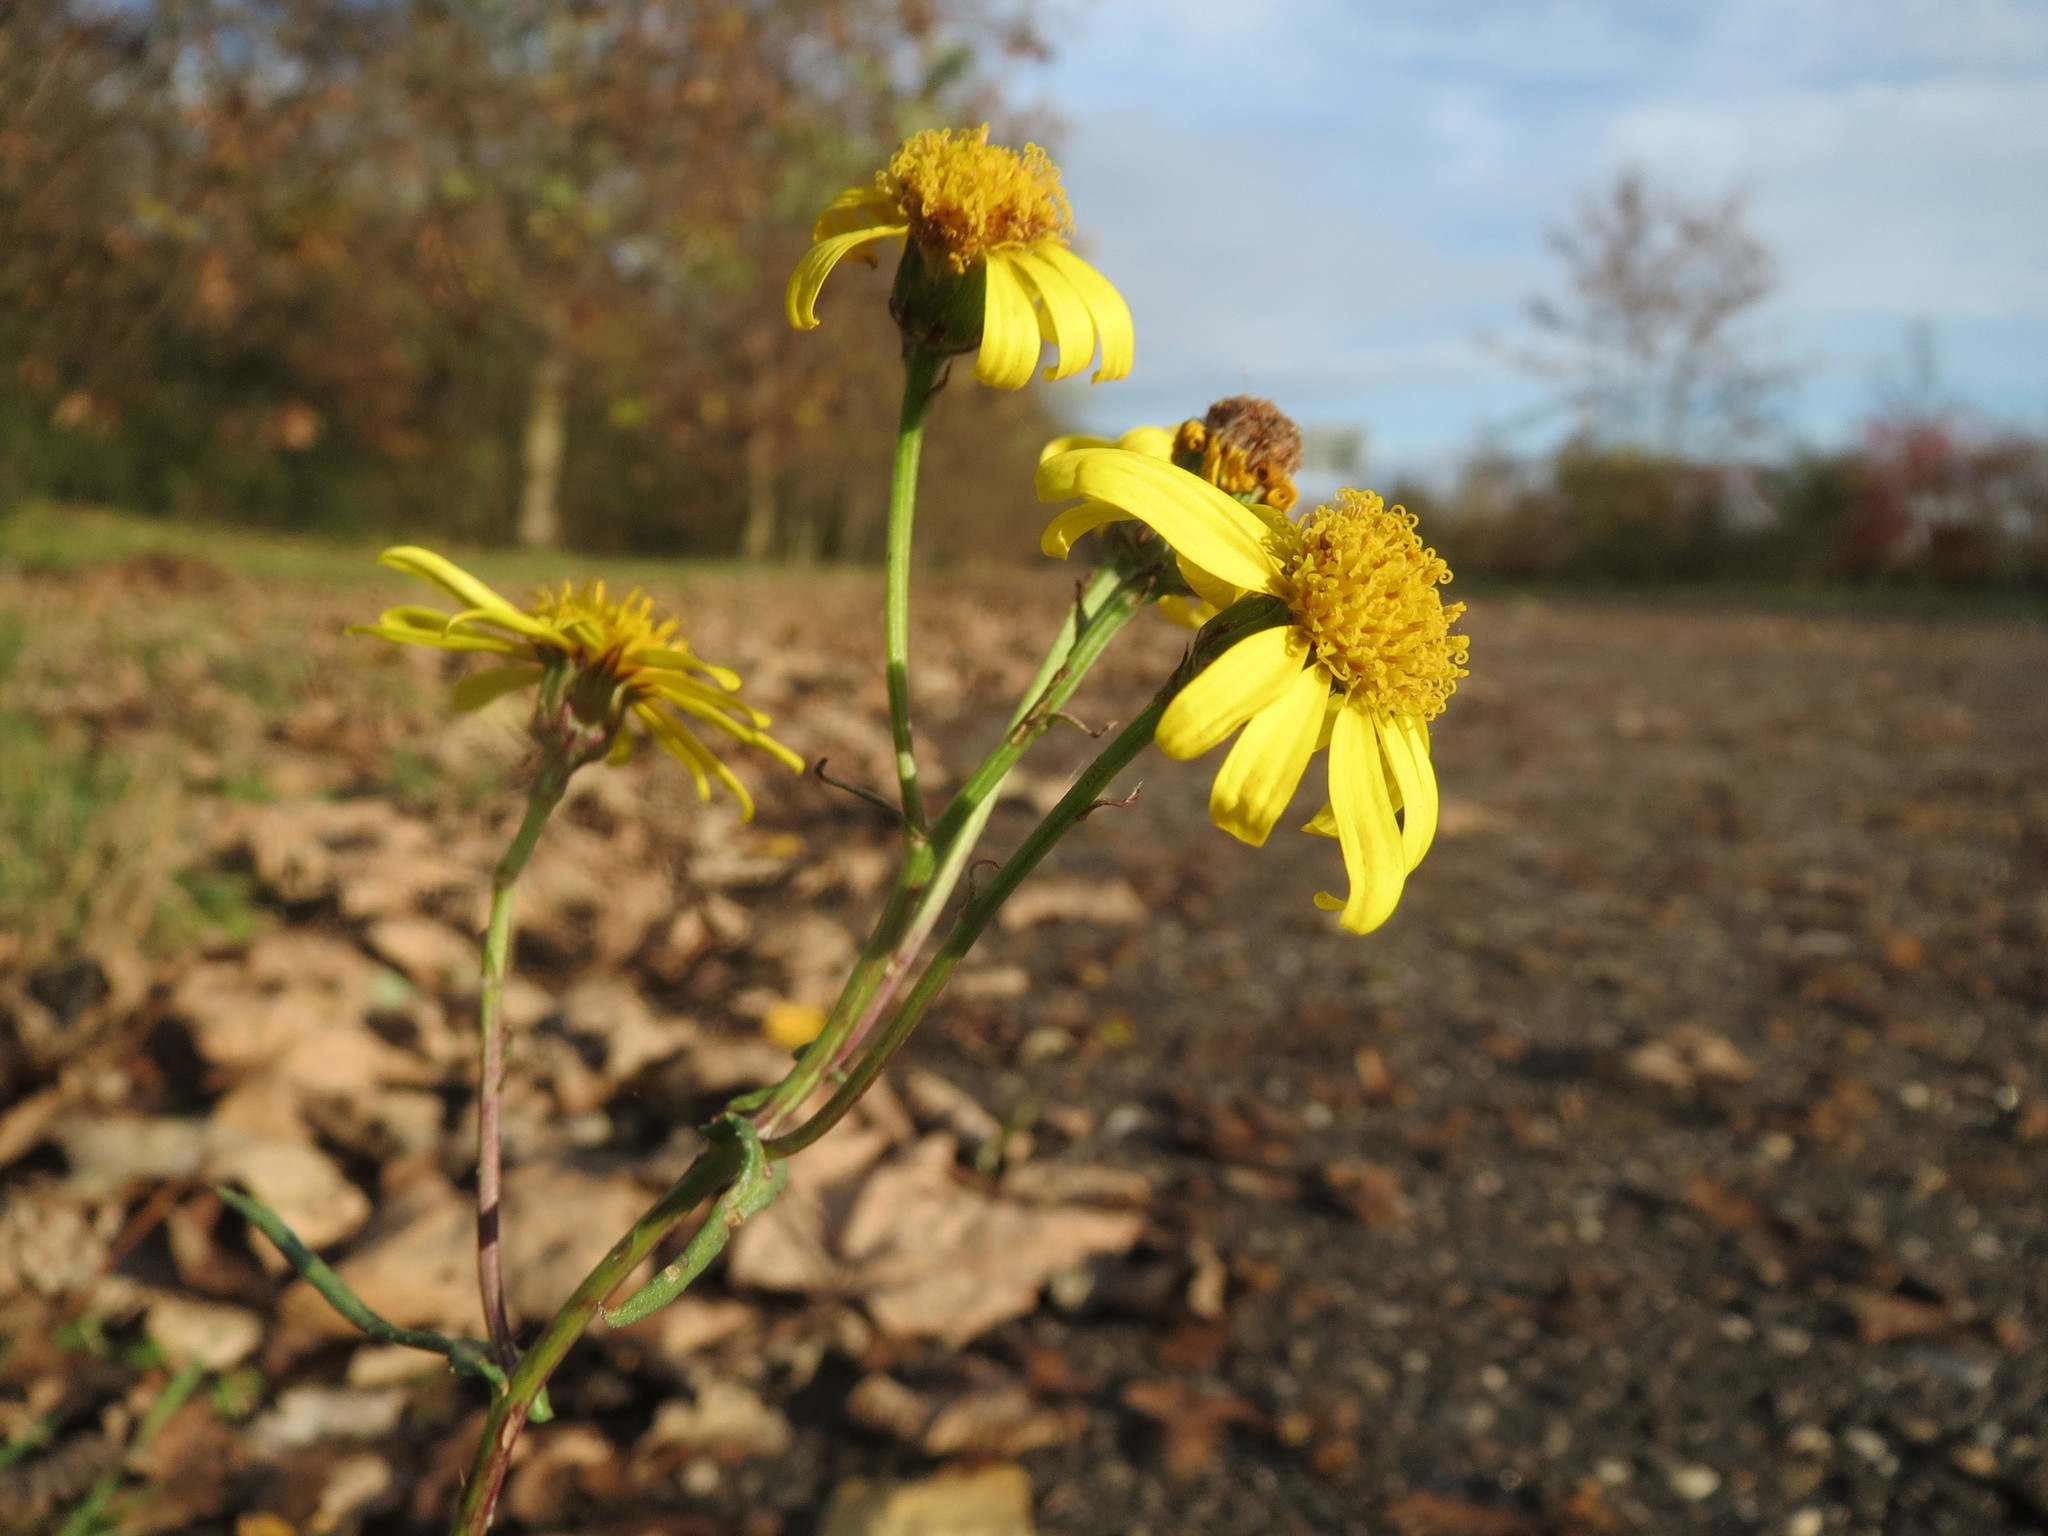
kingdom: Plantae
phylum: Tracheophyta
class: Magnoliopsida
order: Asterales
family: Asteraceae
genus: Senecio
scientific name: Senecio inaequidens
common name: Narrow-leaved ragwort
